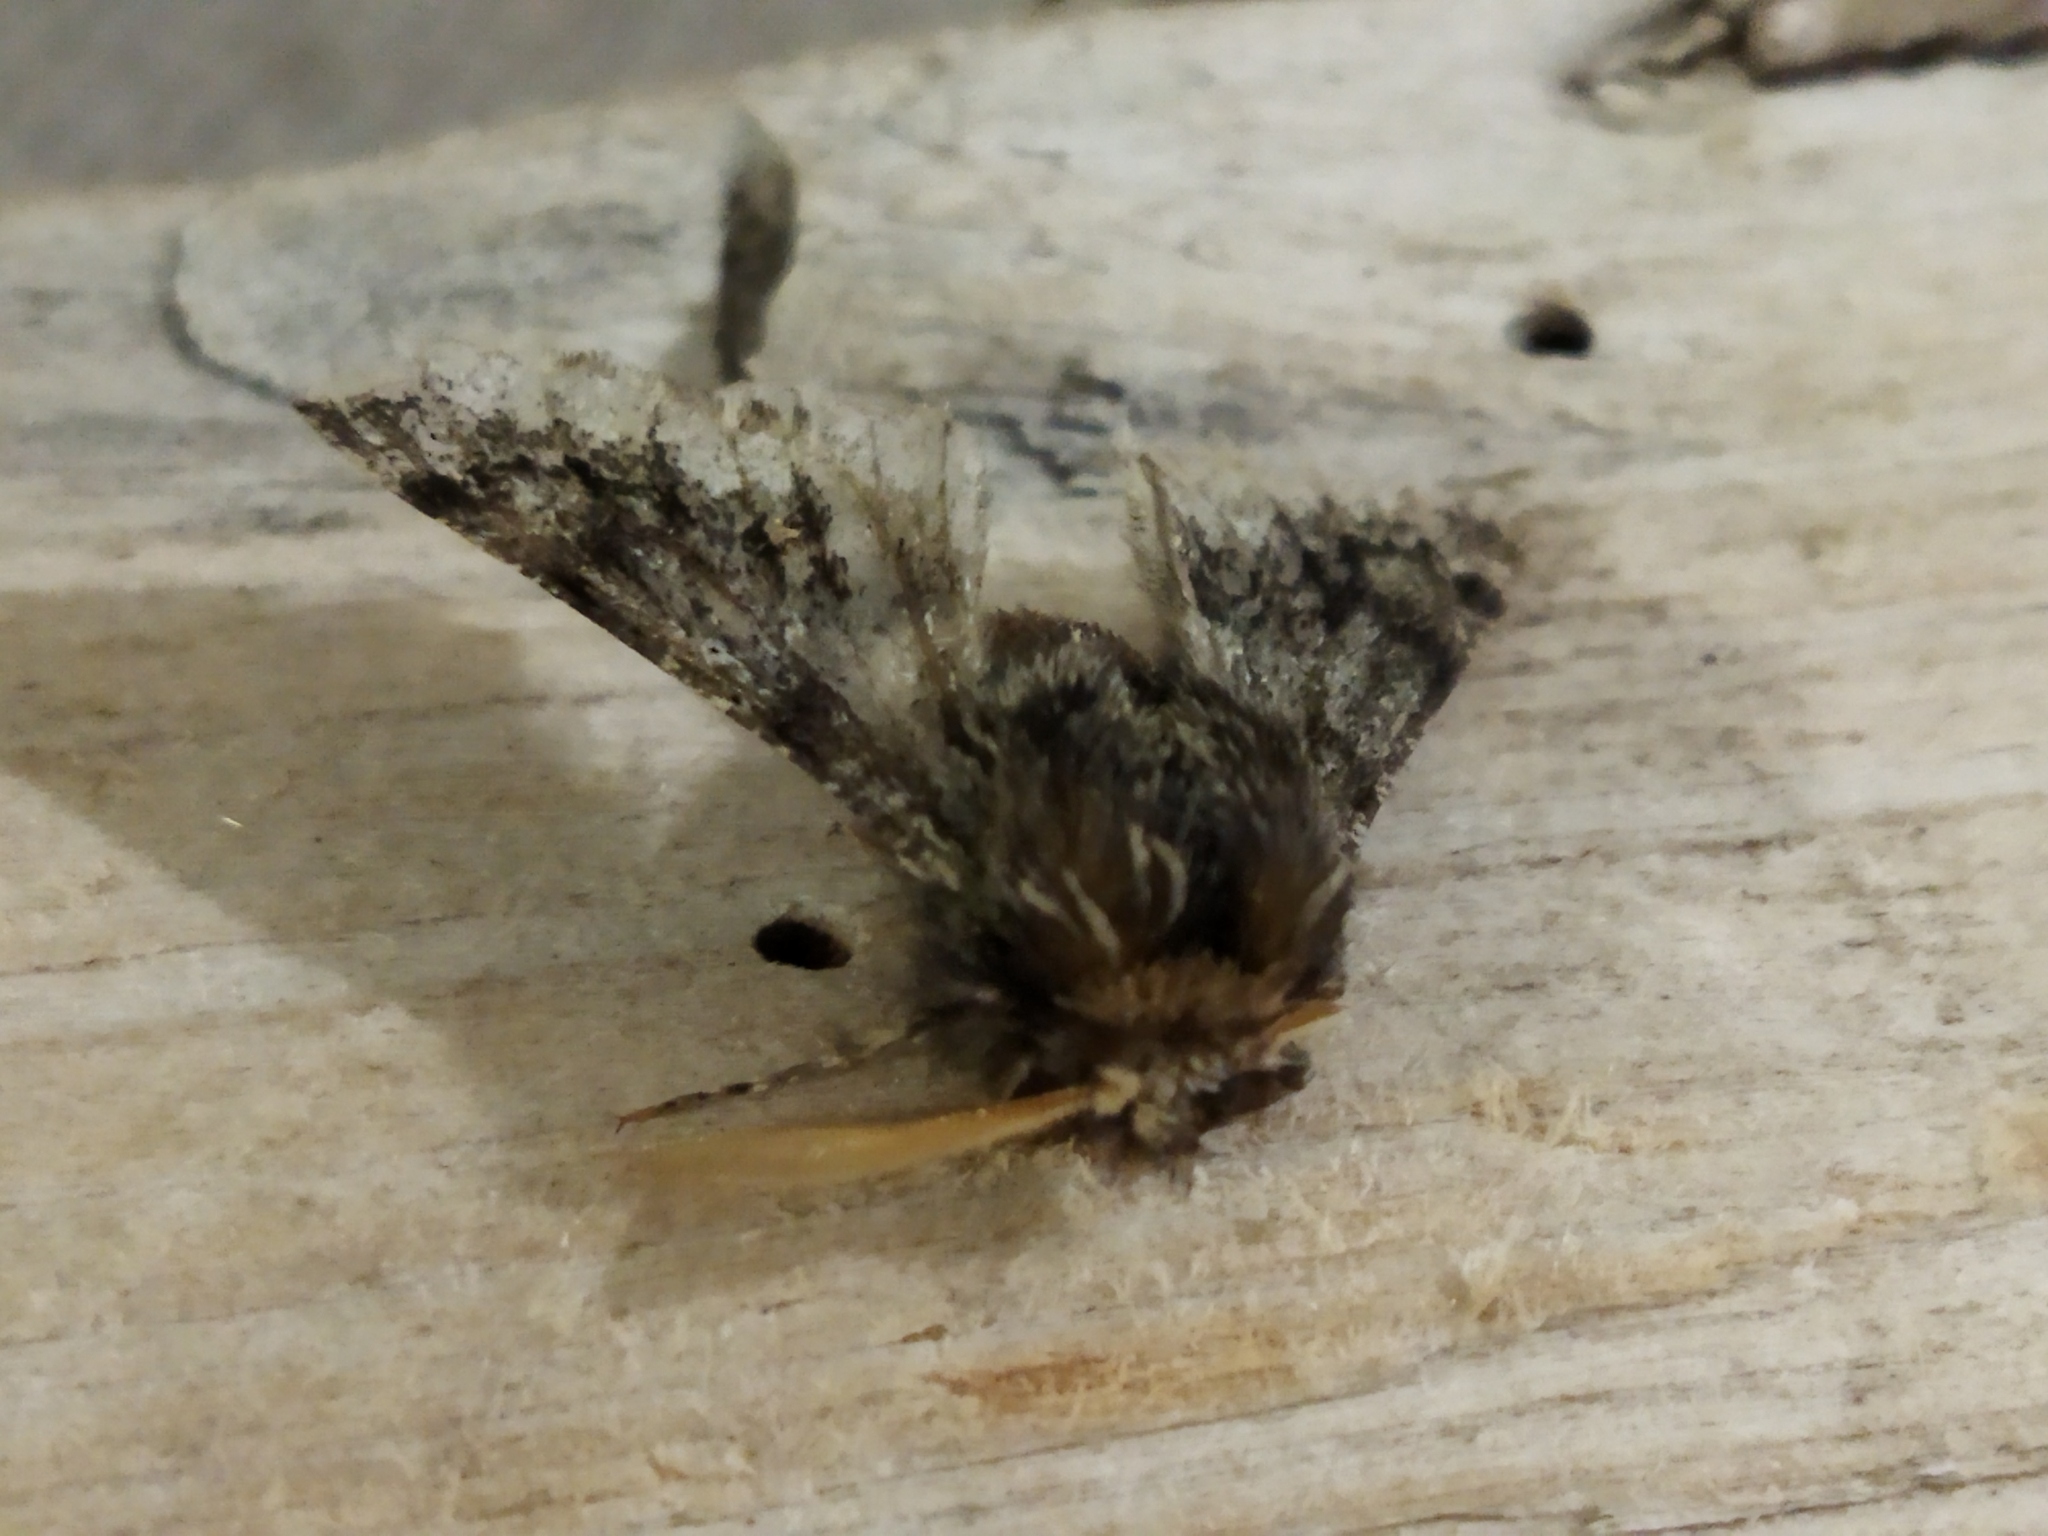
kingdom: Animalia
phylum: Arthropoda
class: Insecta
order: Lepidoptera
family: Geometridae
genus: Apocheima
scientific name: Apocheima hispidaria
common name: Small brindled beauty
